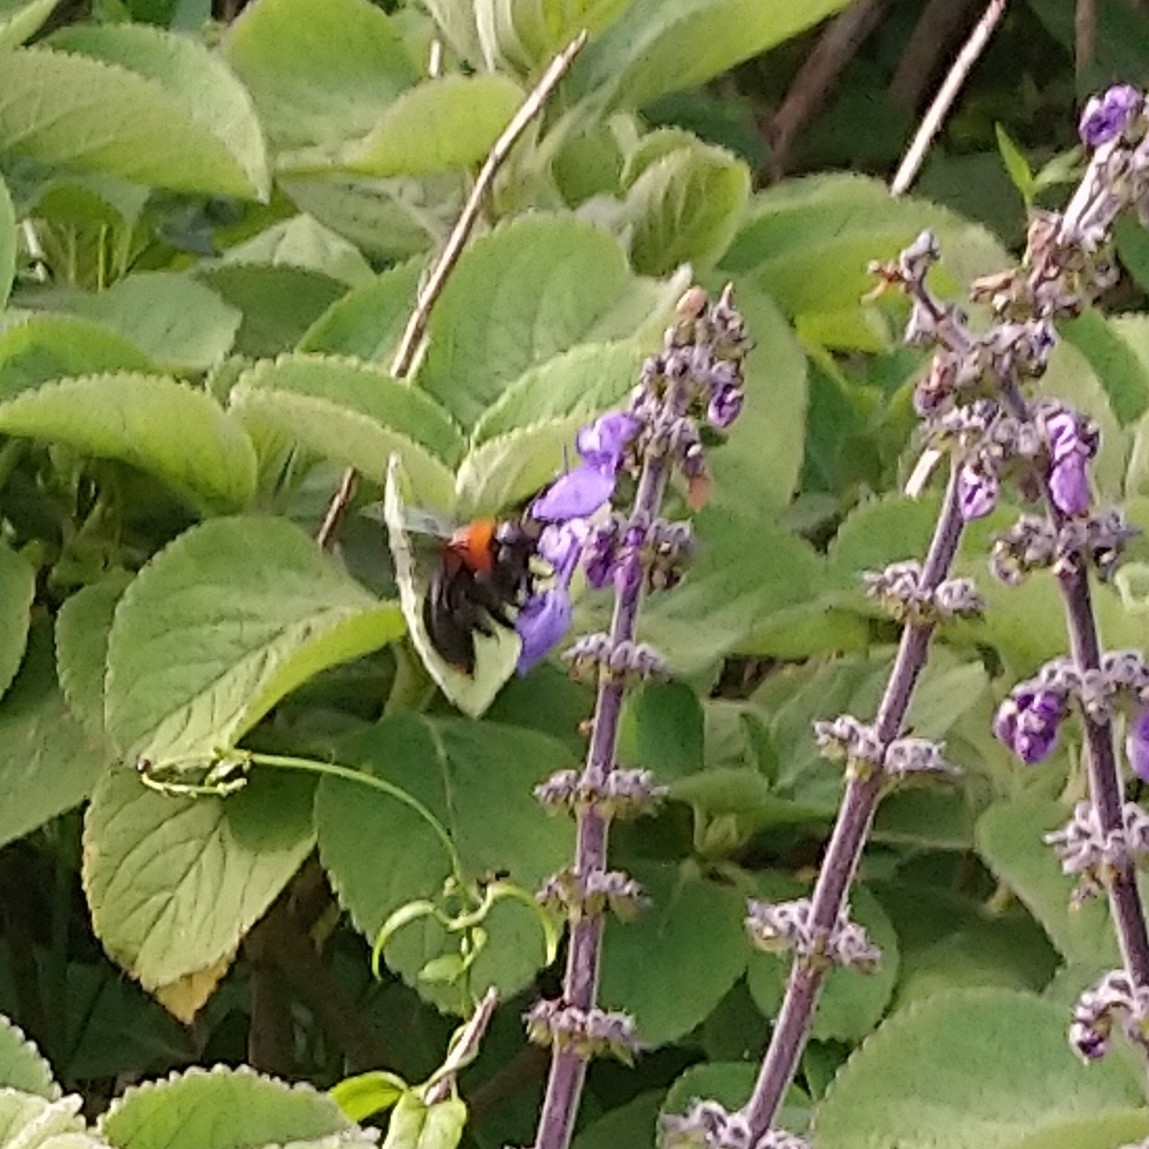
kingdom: Animalia
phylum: Arthropoda
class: Insecta
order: Hymenoptera
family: Apidae
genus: Xylocopa
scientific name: Xylocopa flavorufa
